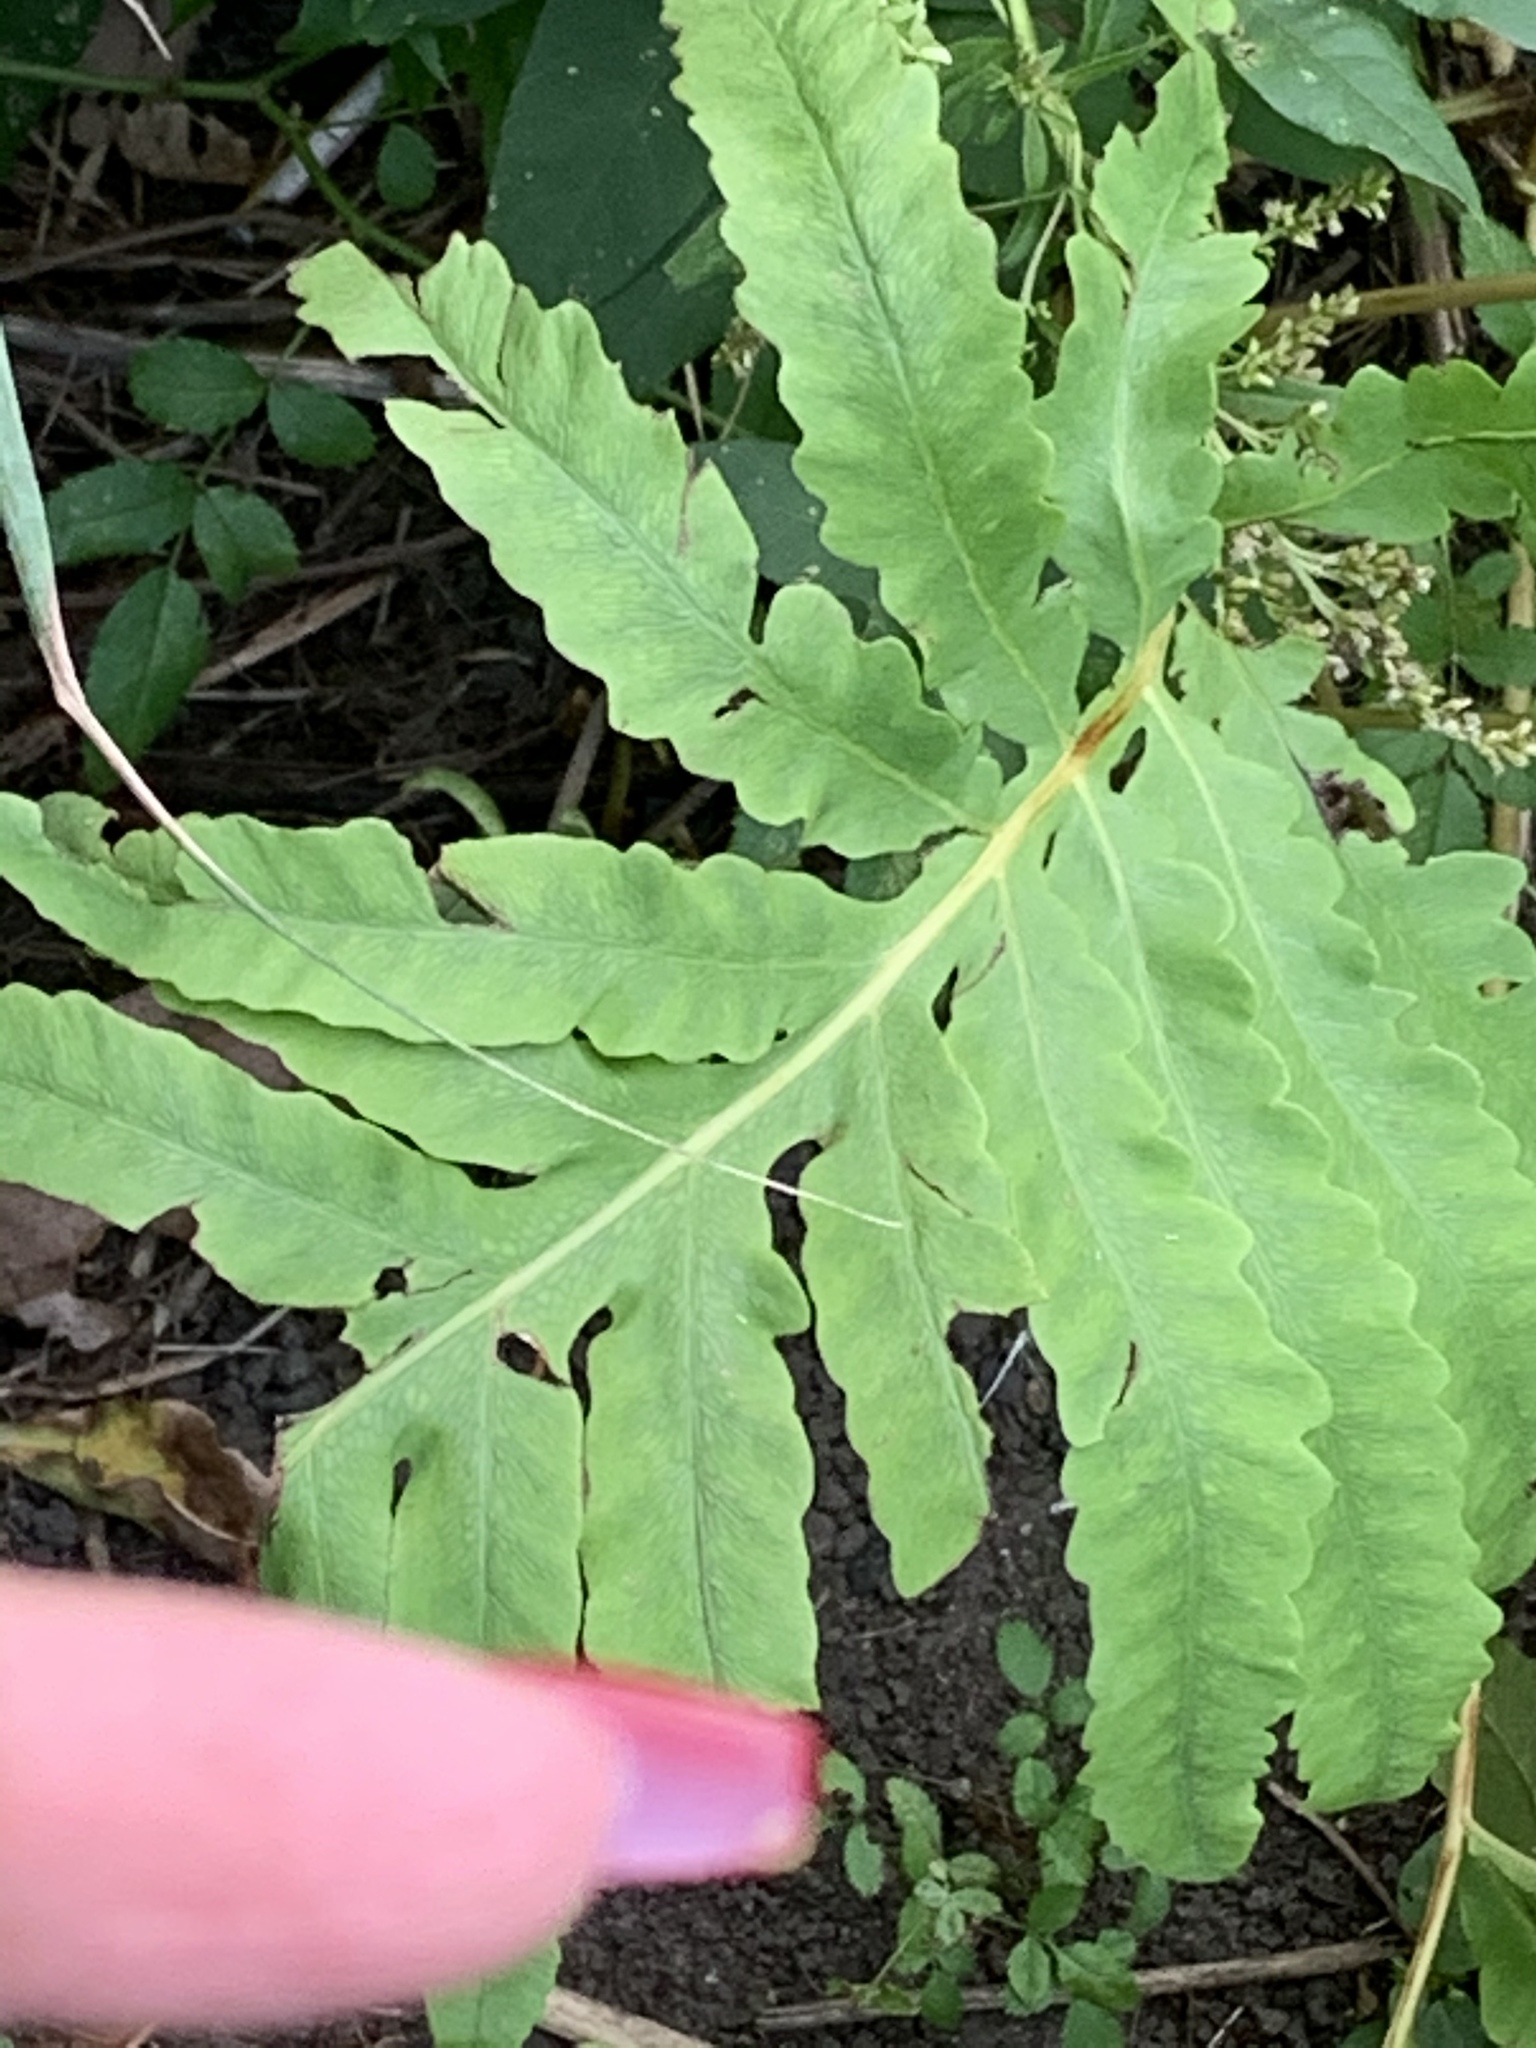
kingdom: Plantae
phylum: Tracheophyta
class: Polypodiopsida
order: Polypodiales
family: Onocleaceae
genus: Onoclea
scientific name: Onoclea sensibilis
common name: Sensitive fern
